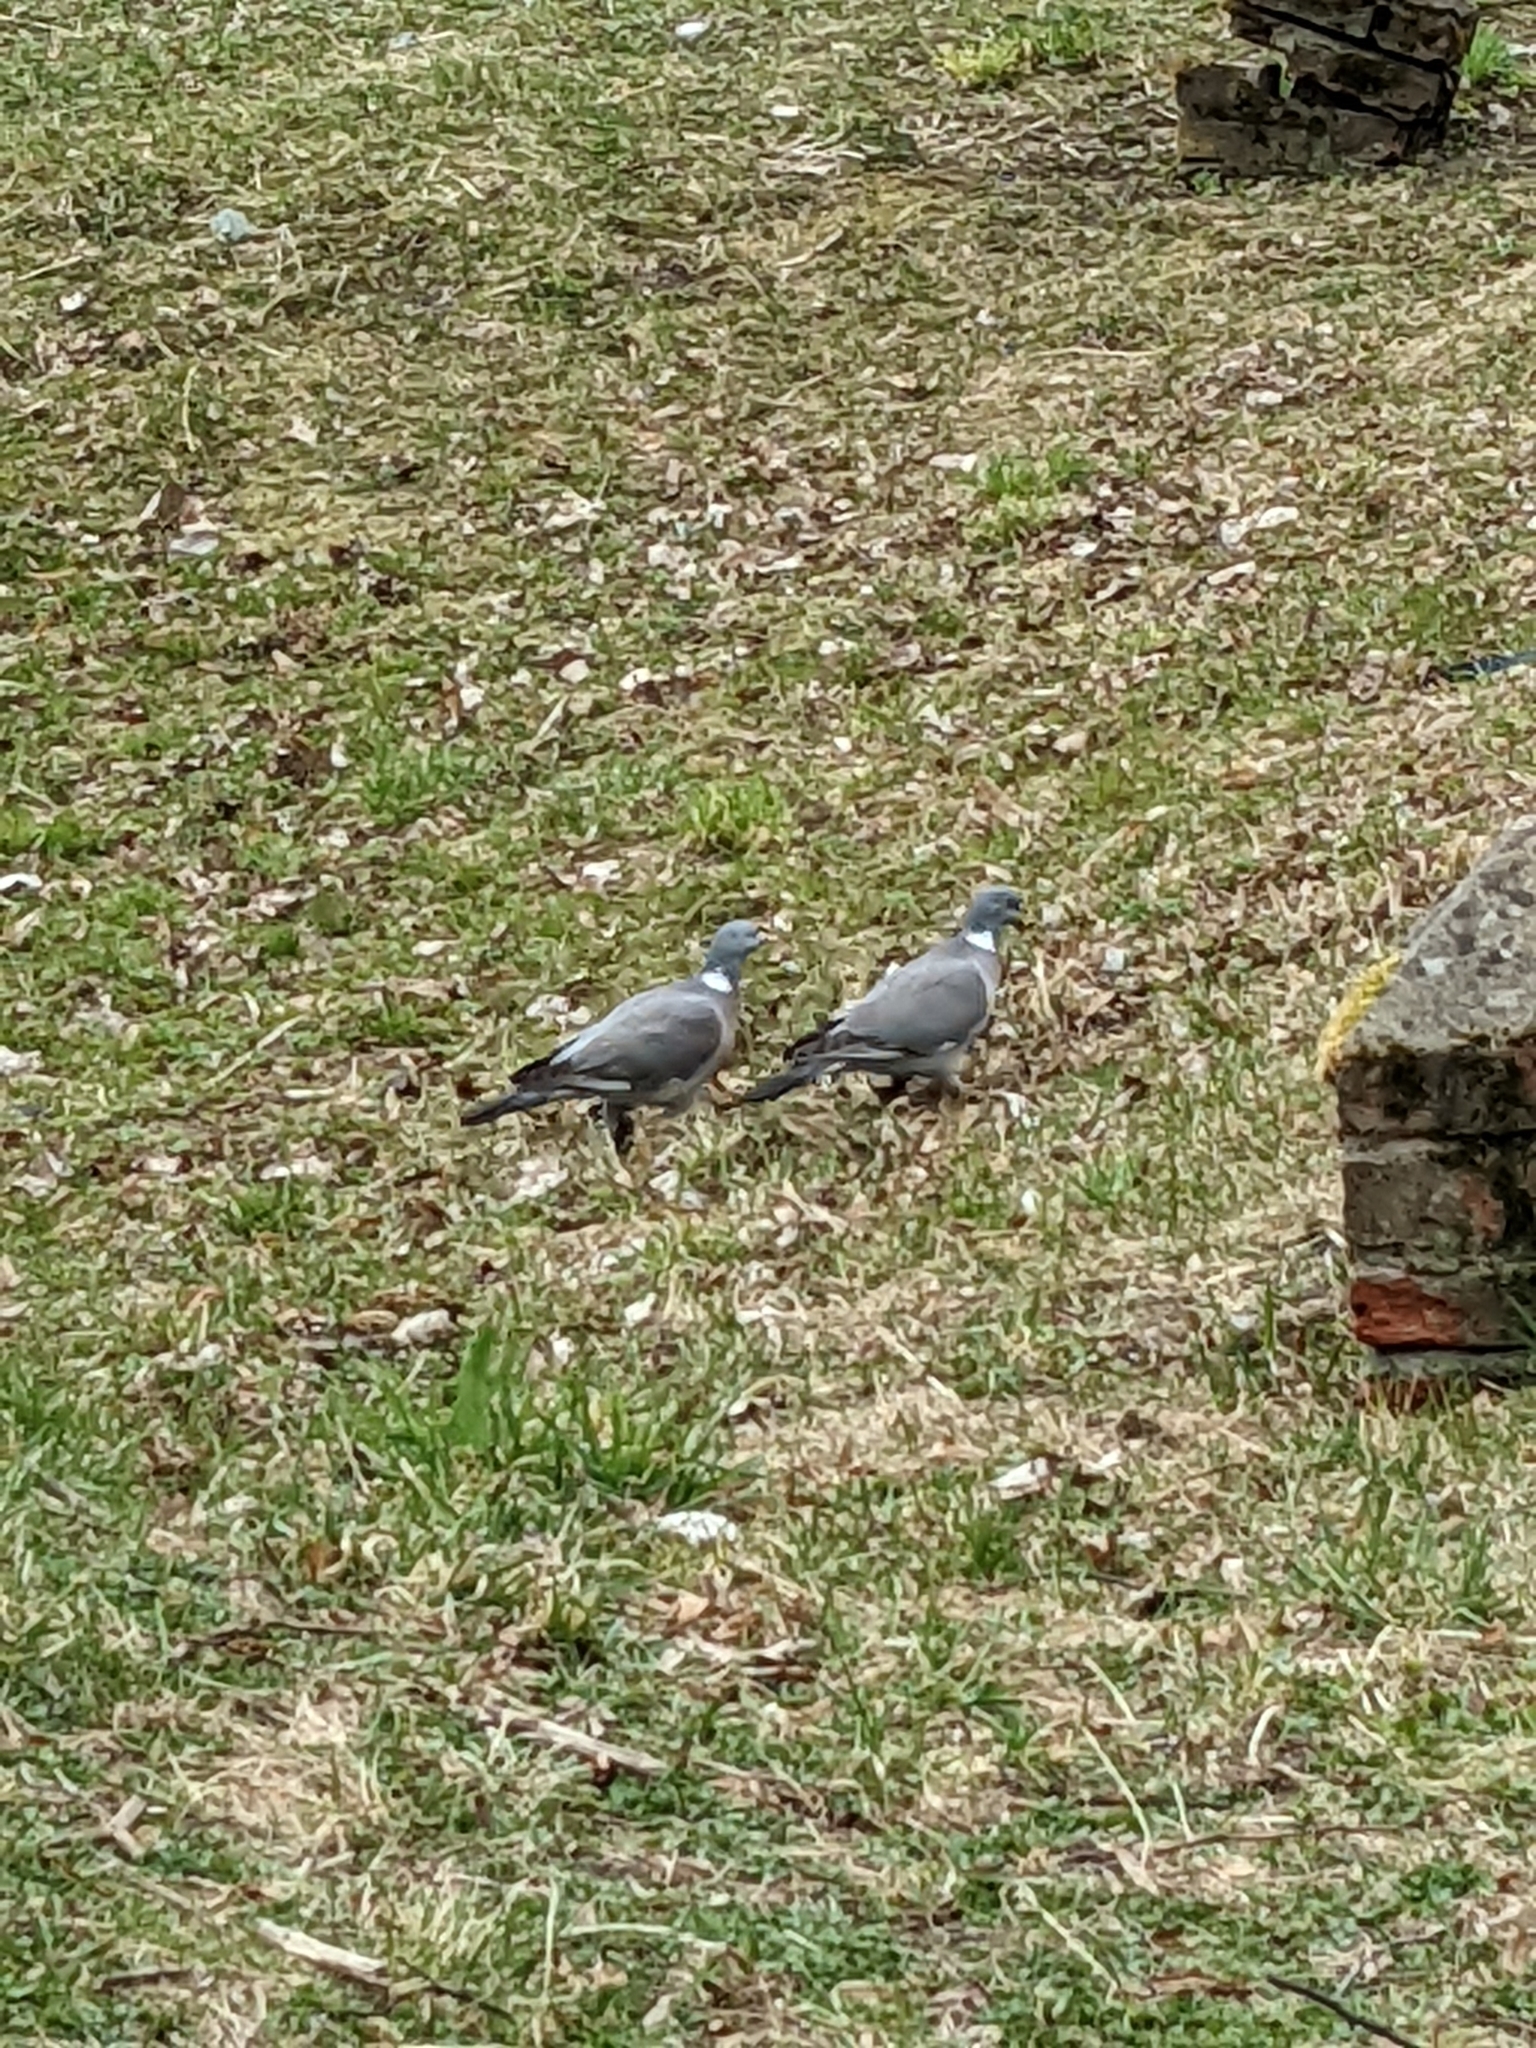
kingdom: Animalia
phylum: Chordata
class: Aves
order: Columbiformes
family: Columbidae
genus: Columba
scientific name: Columba palumbus
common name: Common wood pigeon
